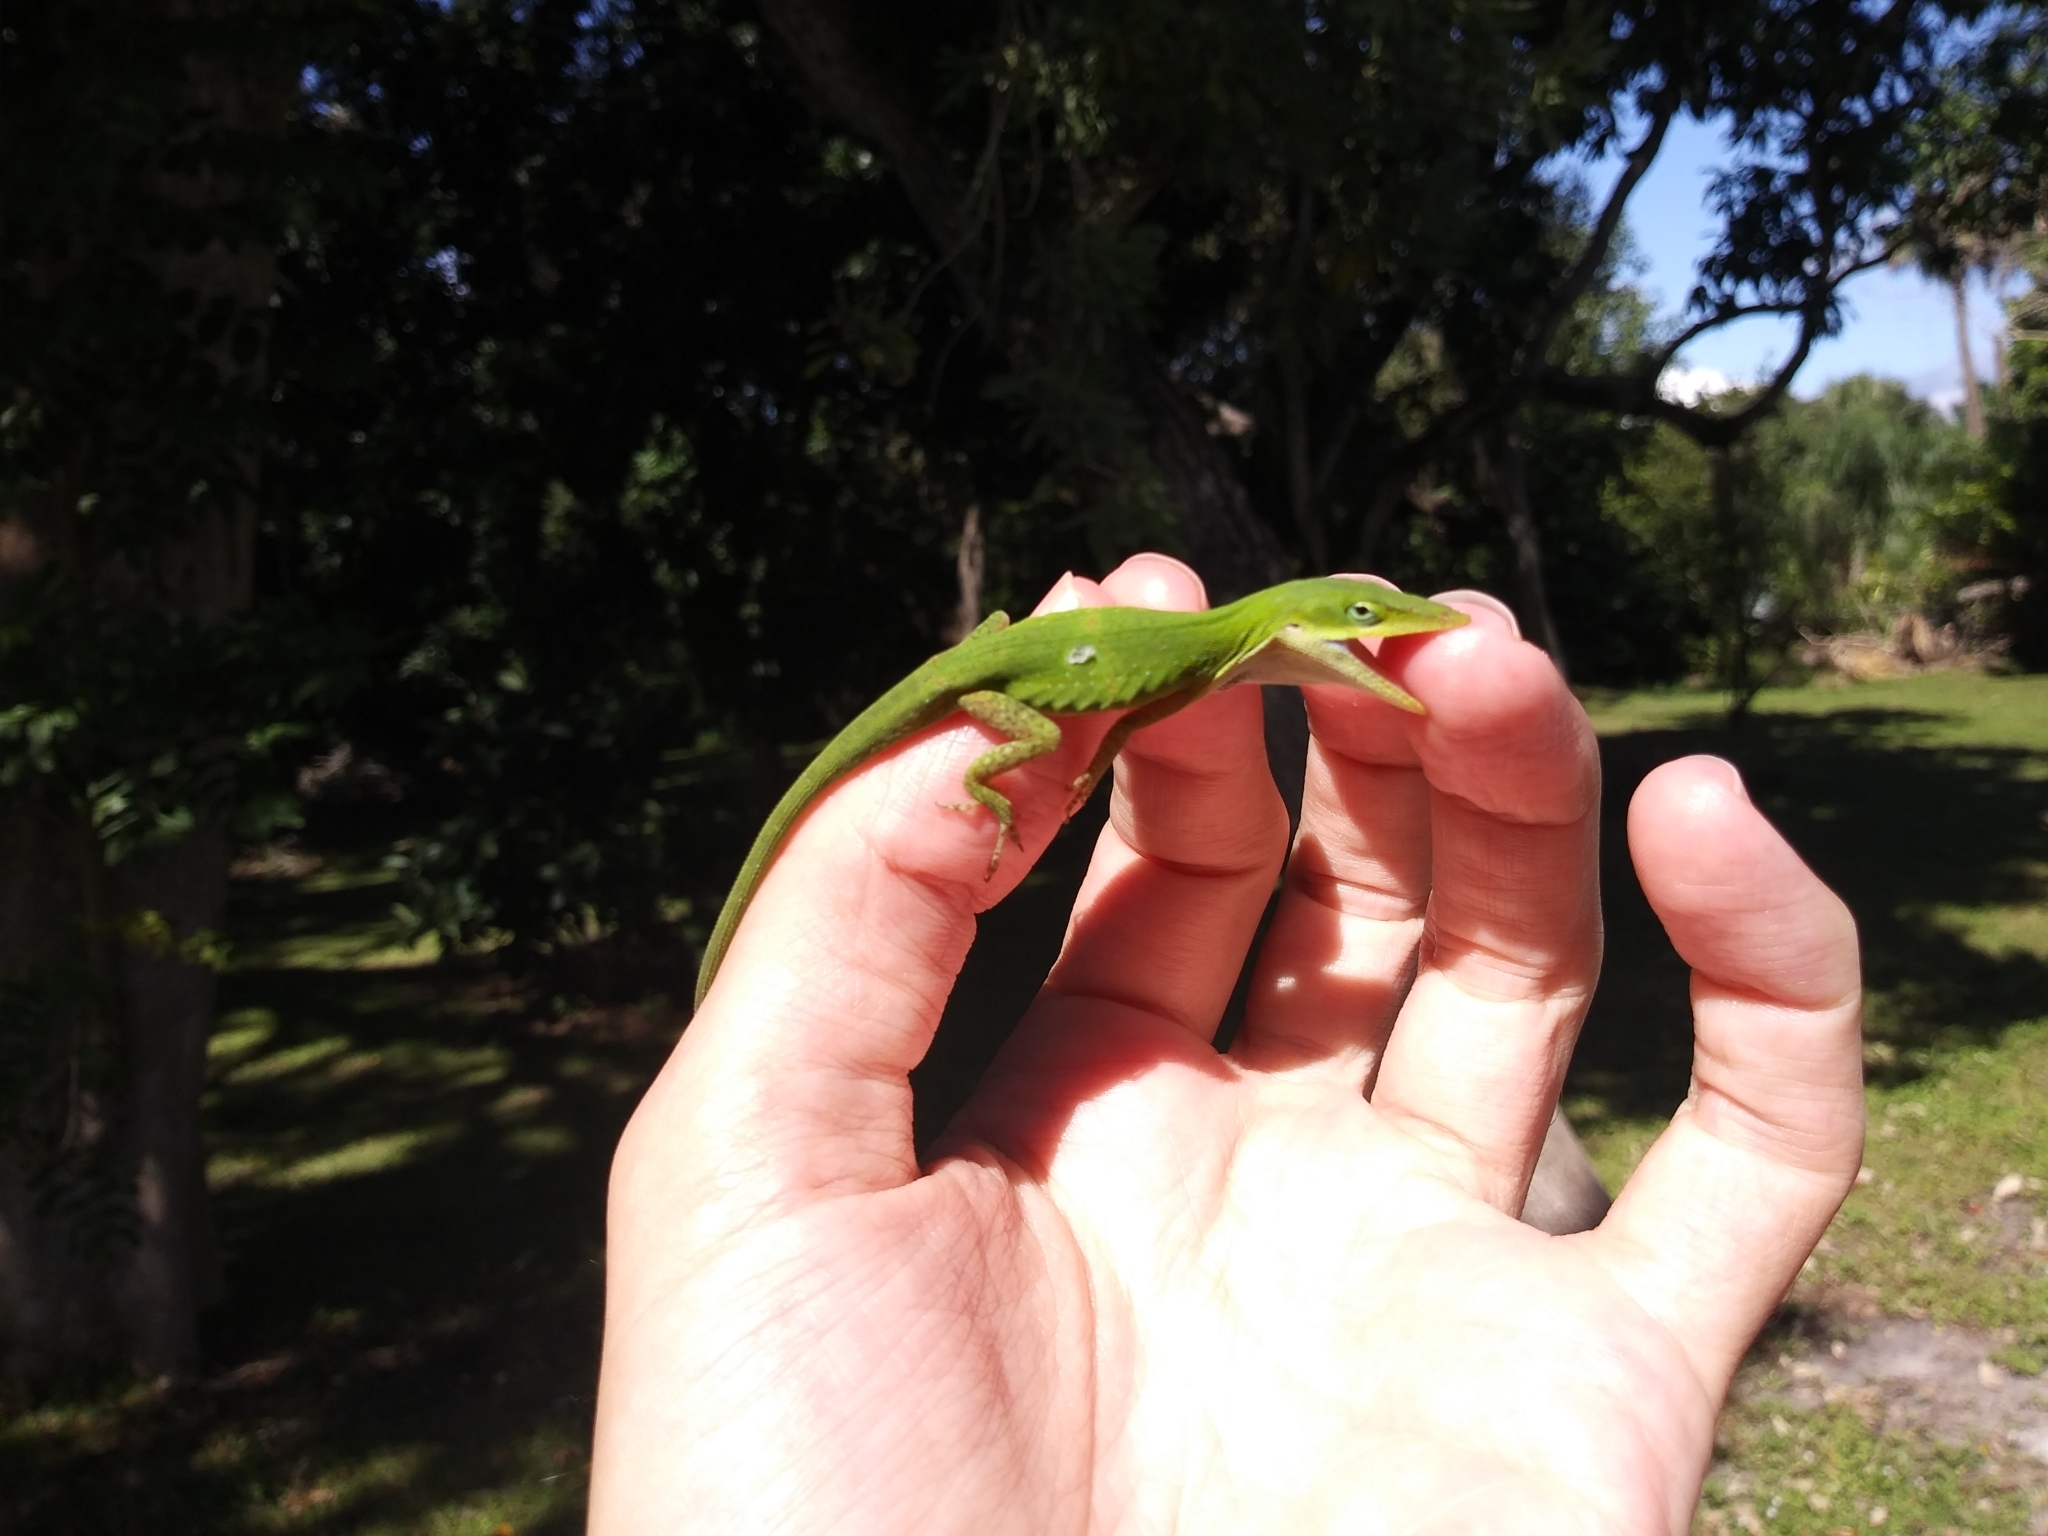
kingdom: Animalia
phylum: Chordata
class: Squamata
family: Dactyloidae
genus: Anolis
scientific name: Anolis carolinensis
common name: Green anole
